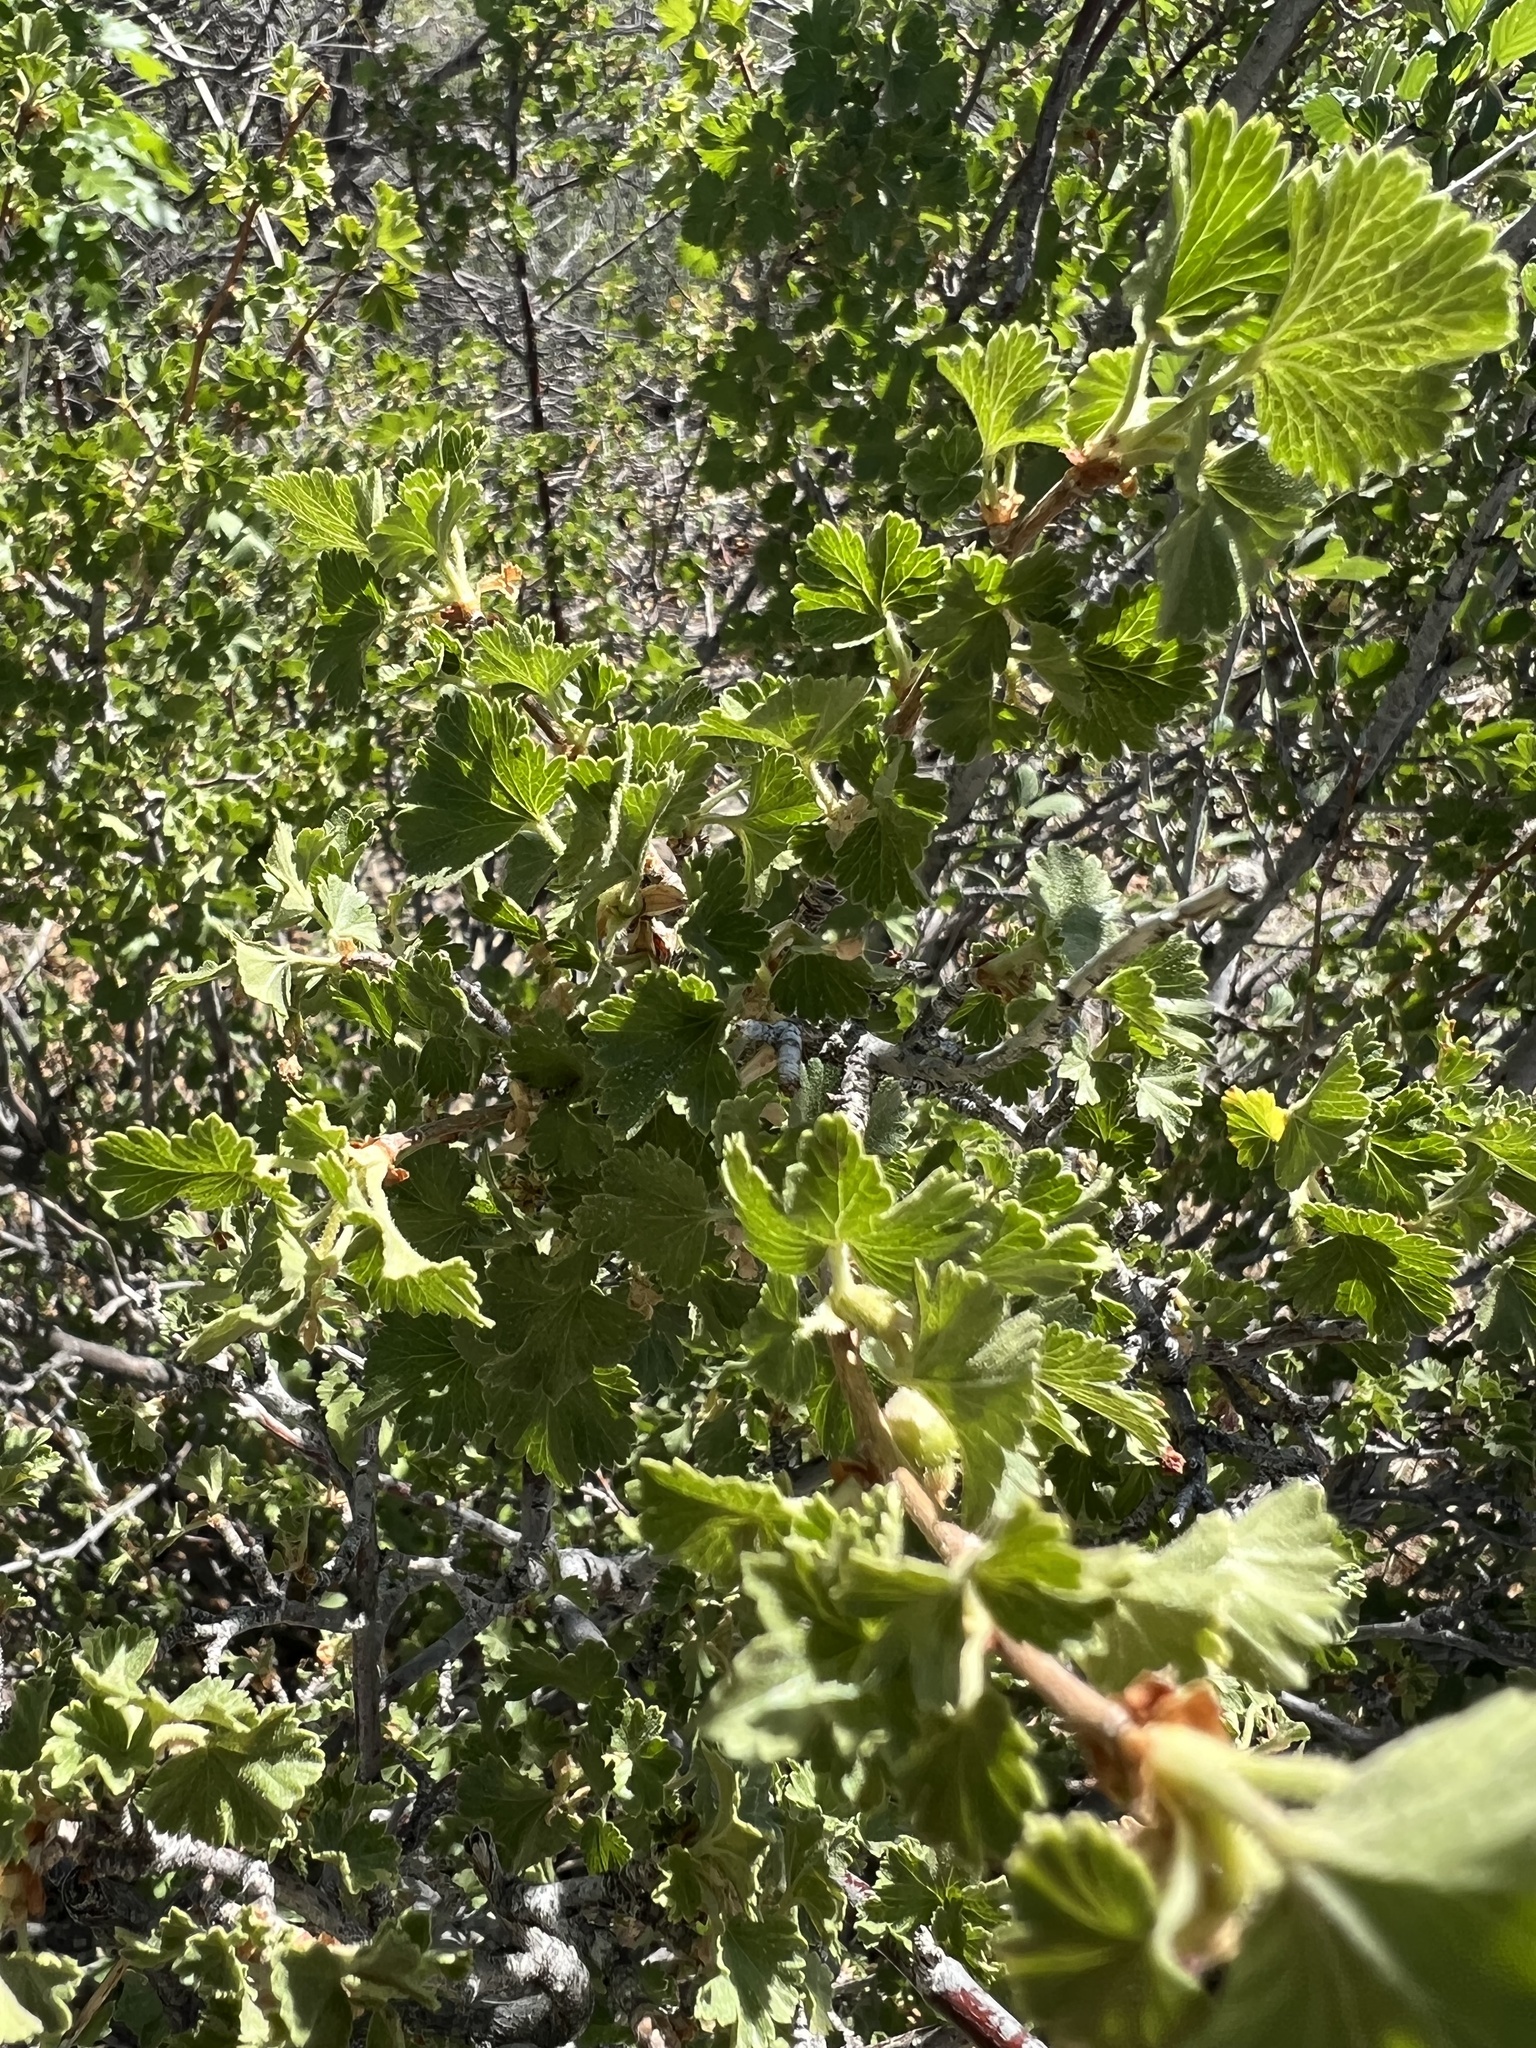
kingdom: Plantae
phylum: Tracheophyta
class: Magnoliopsida
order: Saxifragales
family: Grossulariaceae
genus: Ribes
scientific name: Ribes cereum
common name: Wax currant
